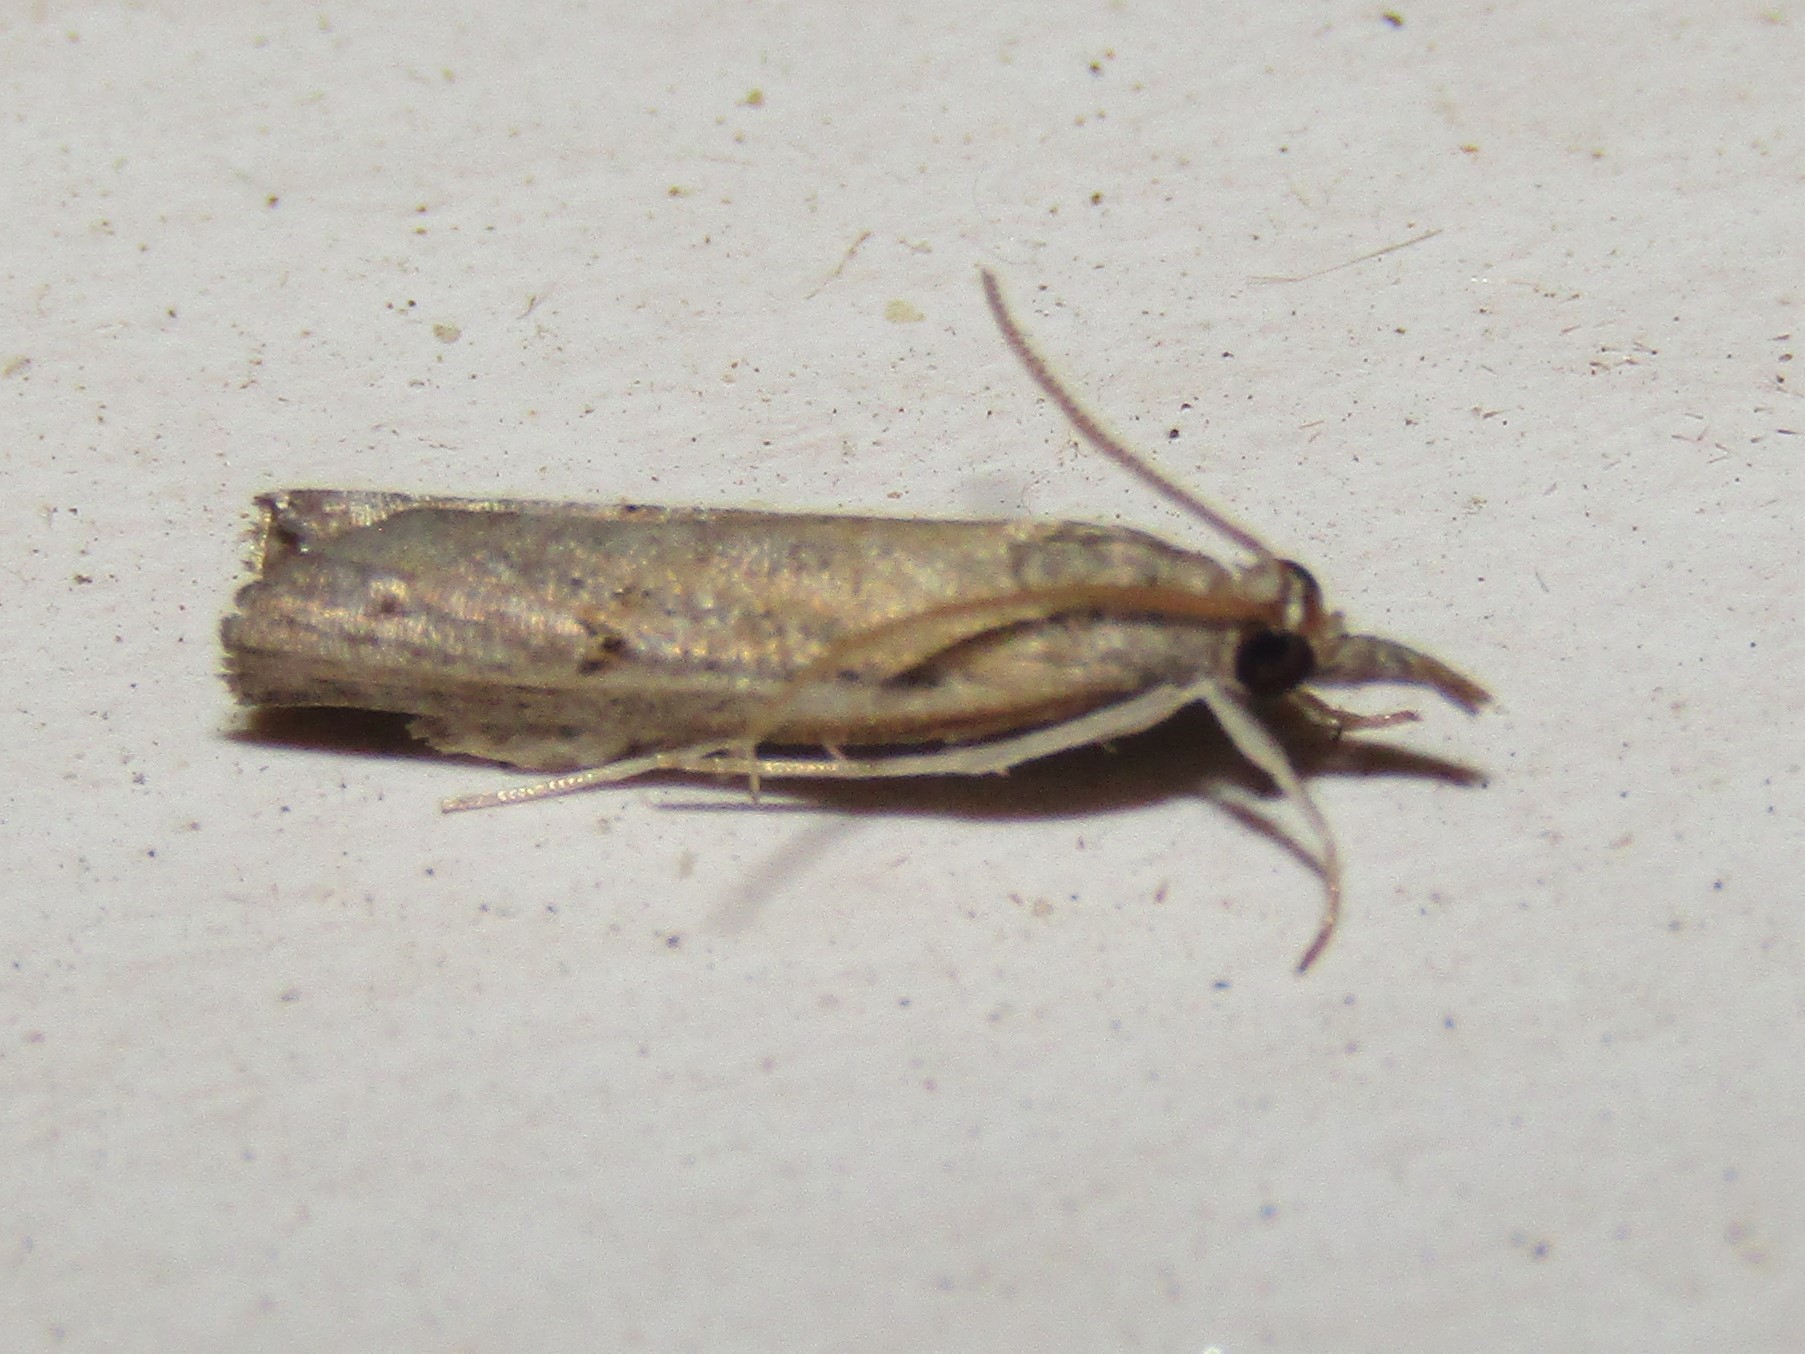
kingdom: Animalia
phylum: Arthropoda
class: Insecta
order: Lepidoptera
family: Crambidae
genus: Fissicrambus
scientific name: Fissicrambus mutabilis
